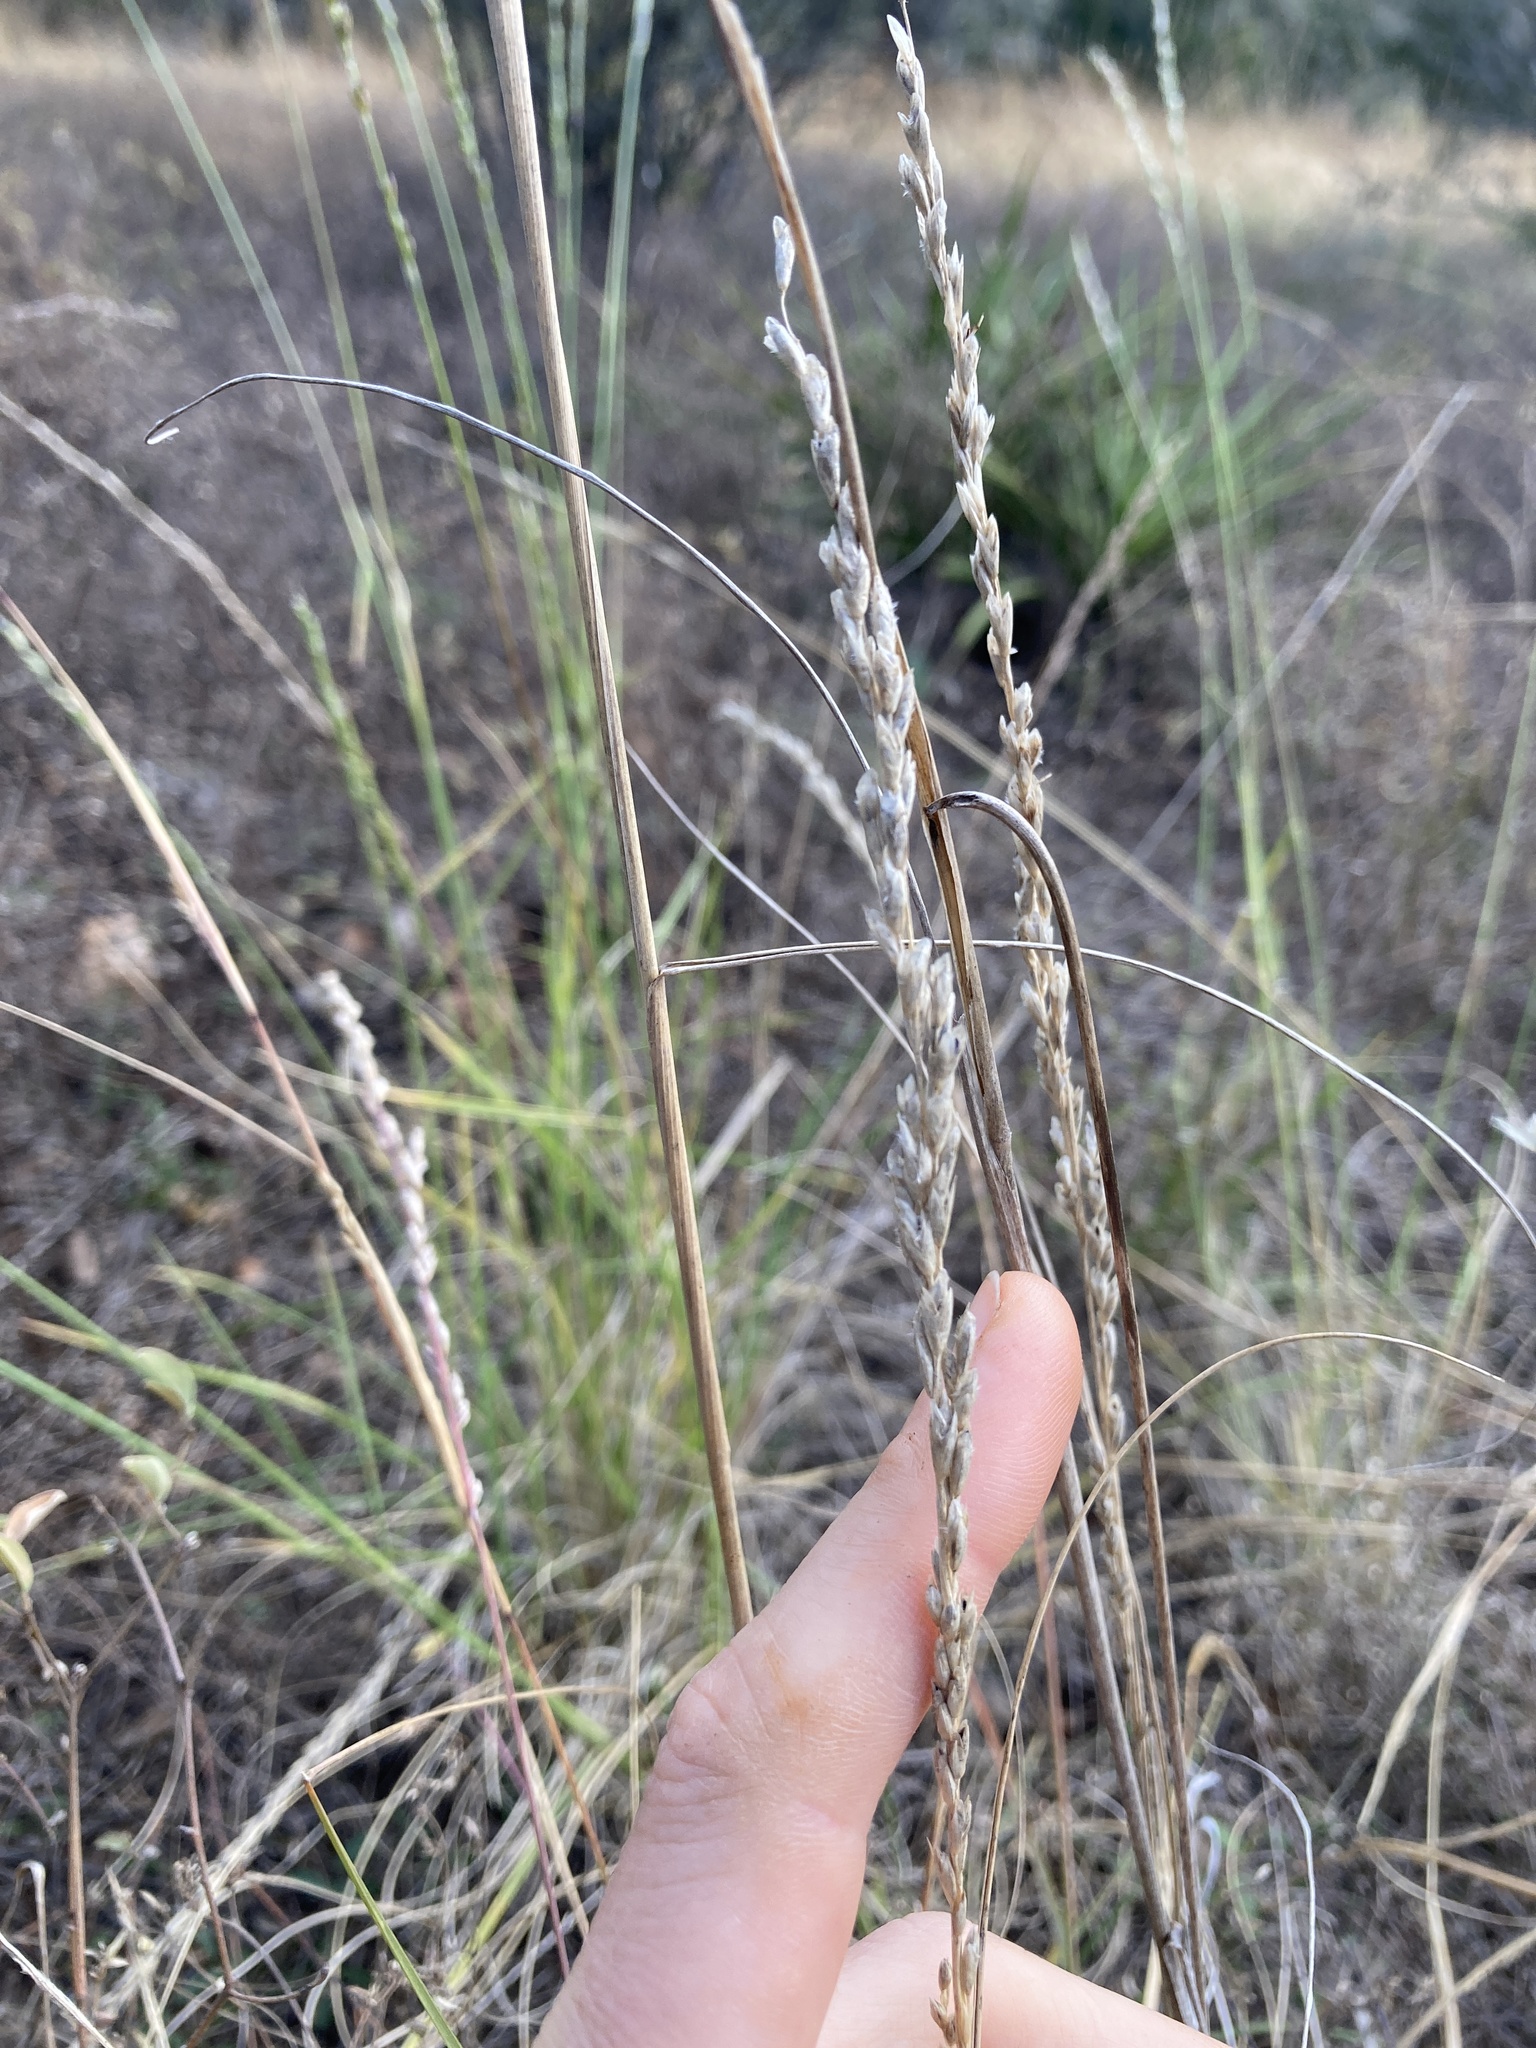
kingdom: Plantae
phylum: Tracheophyta
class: Liliopsida
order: Poales
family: Poaceae
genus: Tridentopsis
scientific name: Tridentopsis mutica
